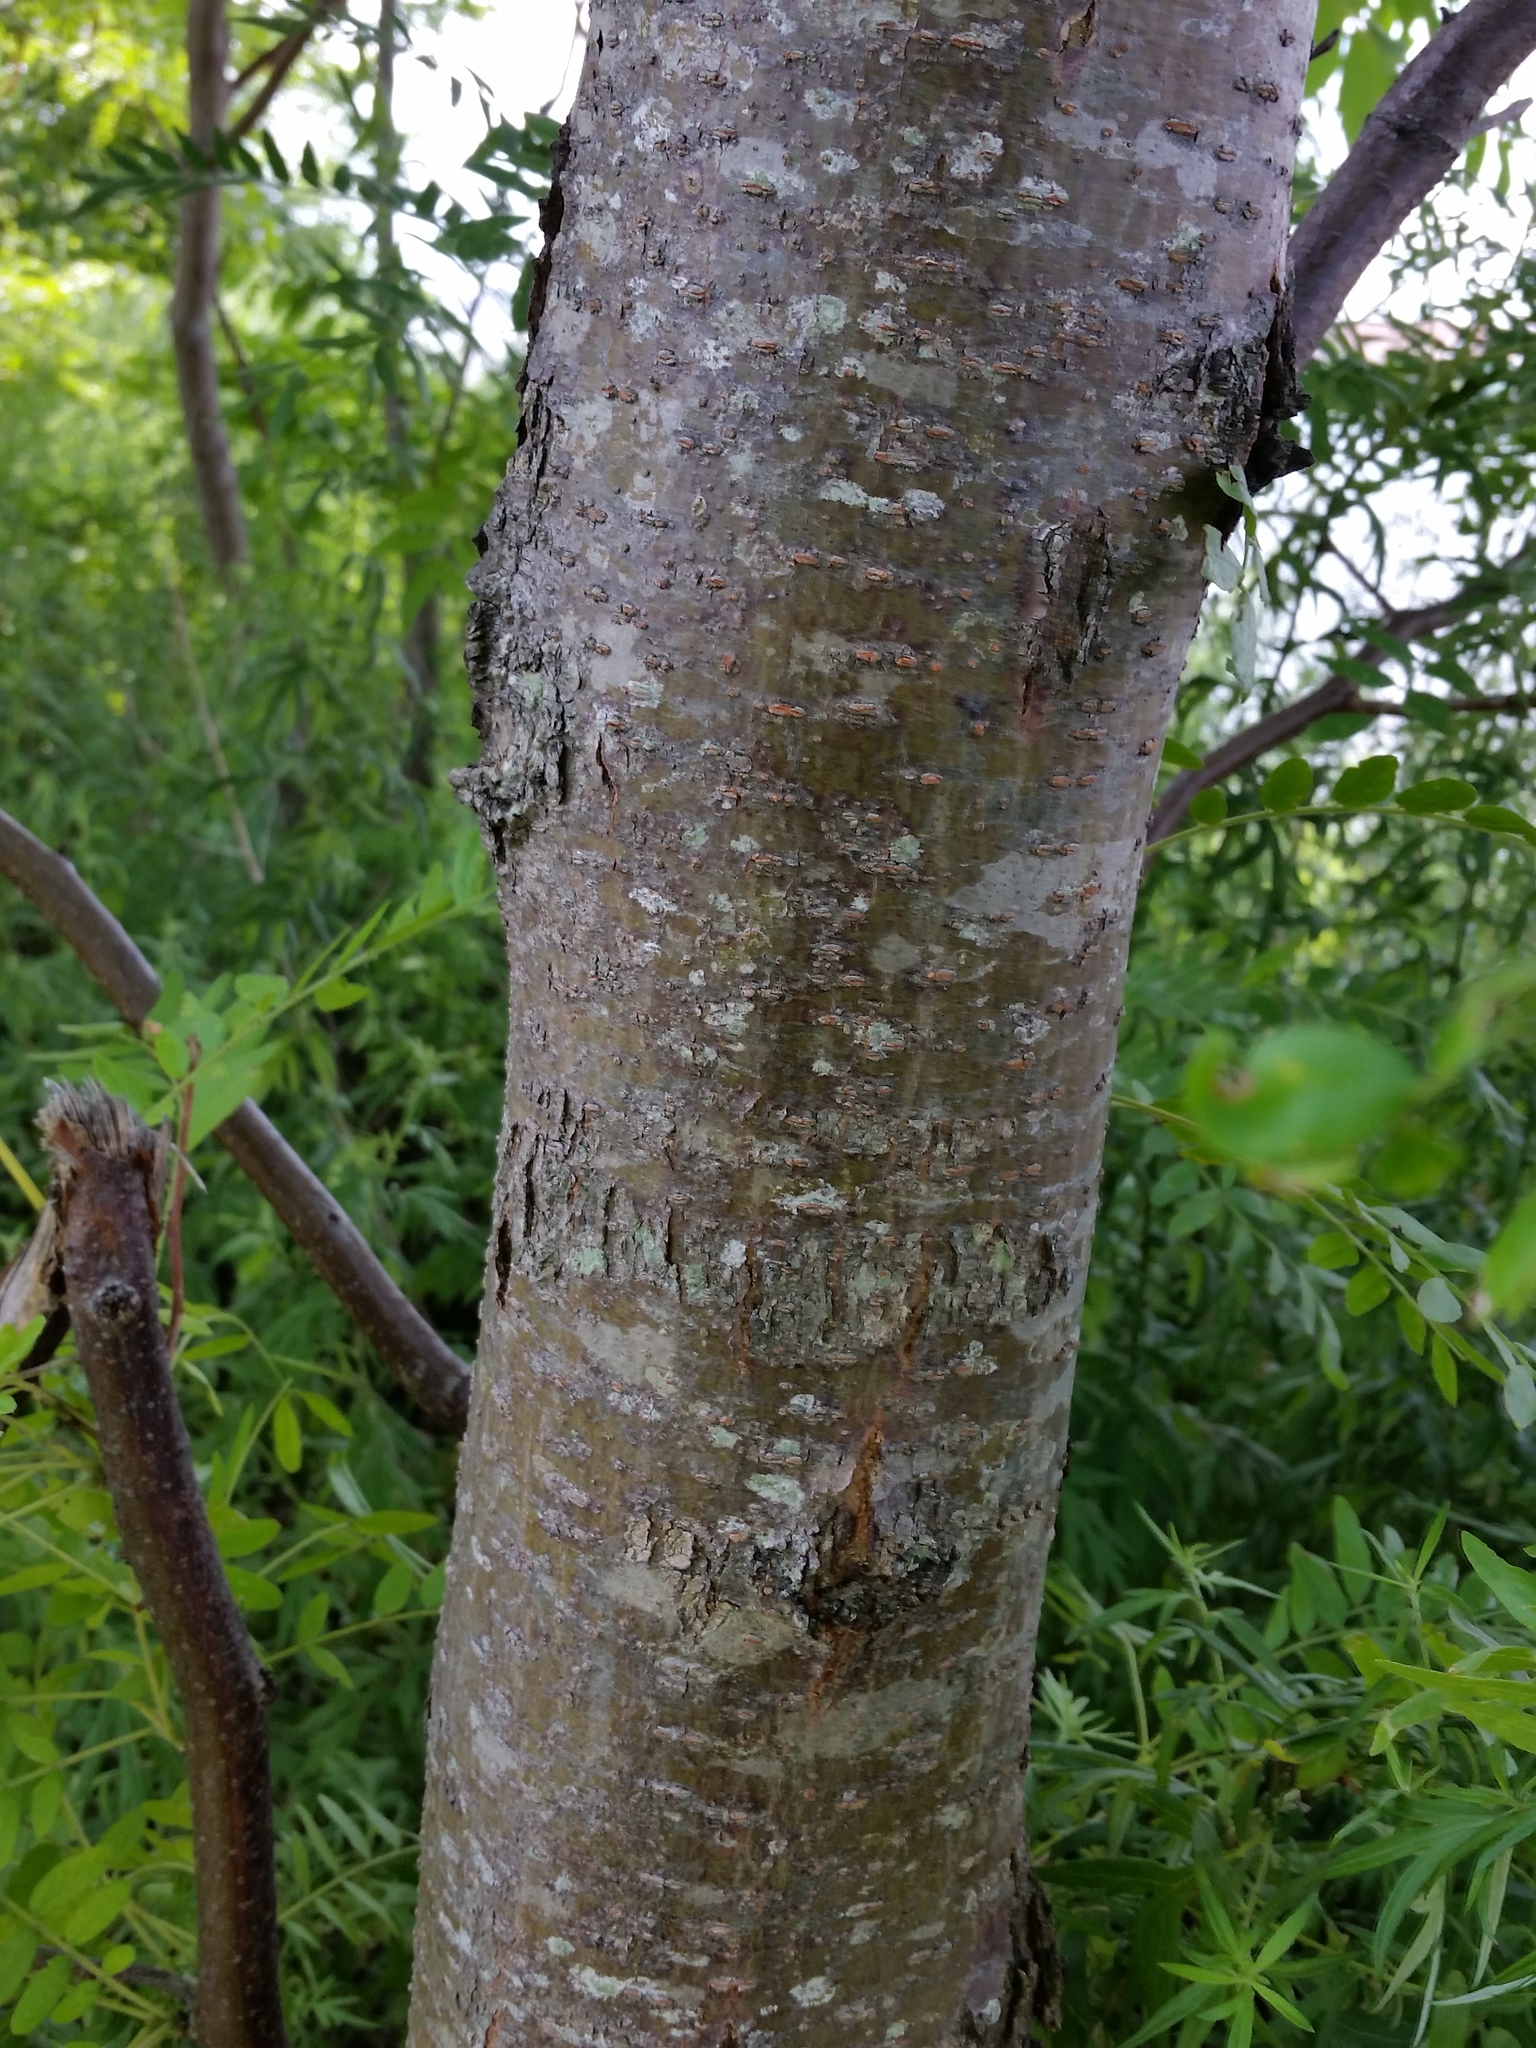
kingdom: Plantae
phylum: Tracheophyta
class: Magnoliopsida
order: Fabales
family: Fabaceae
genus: Gleditsia
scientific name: Gleditsia triacanthos
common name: Common honeylocust
